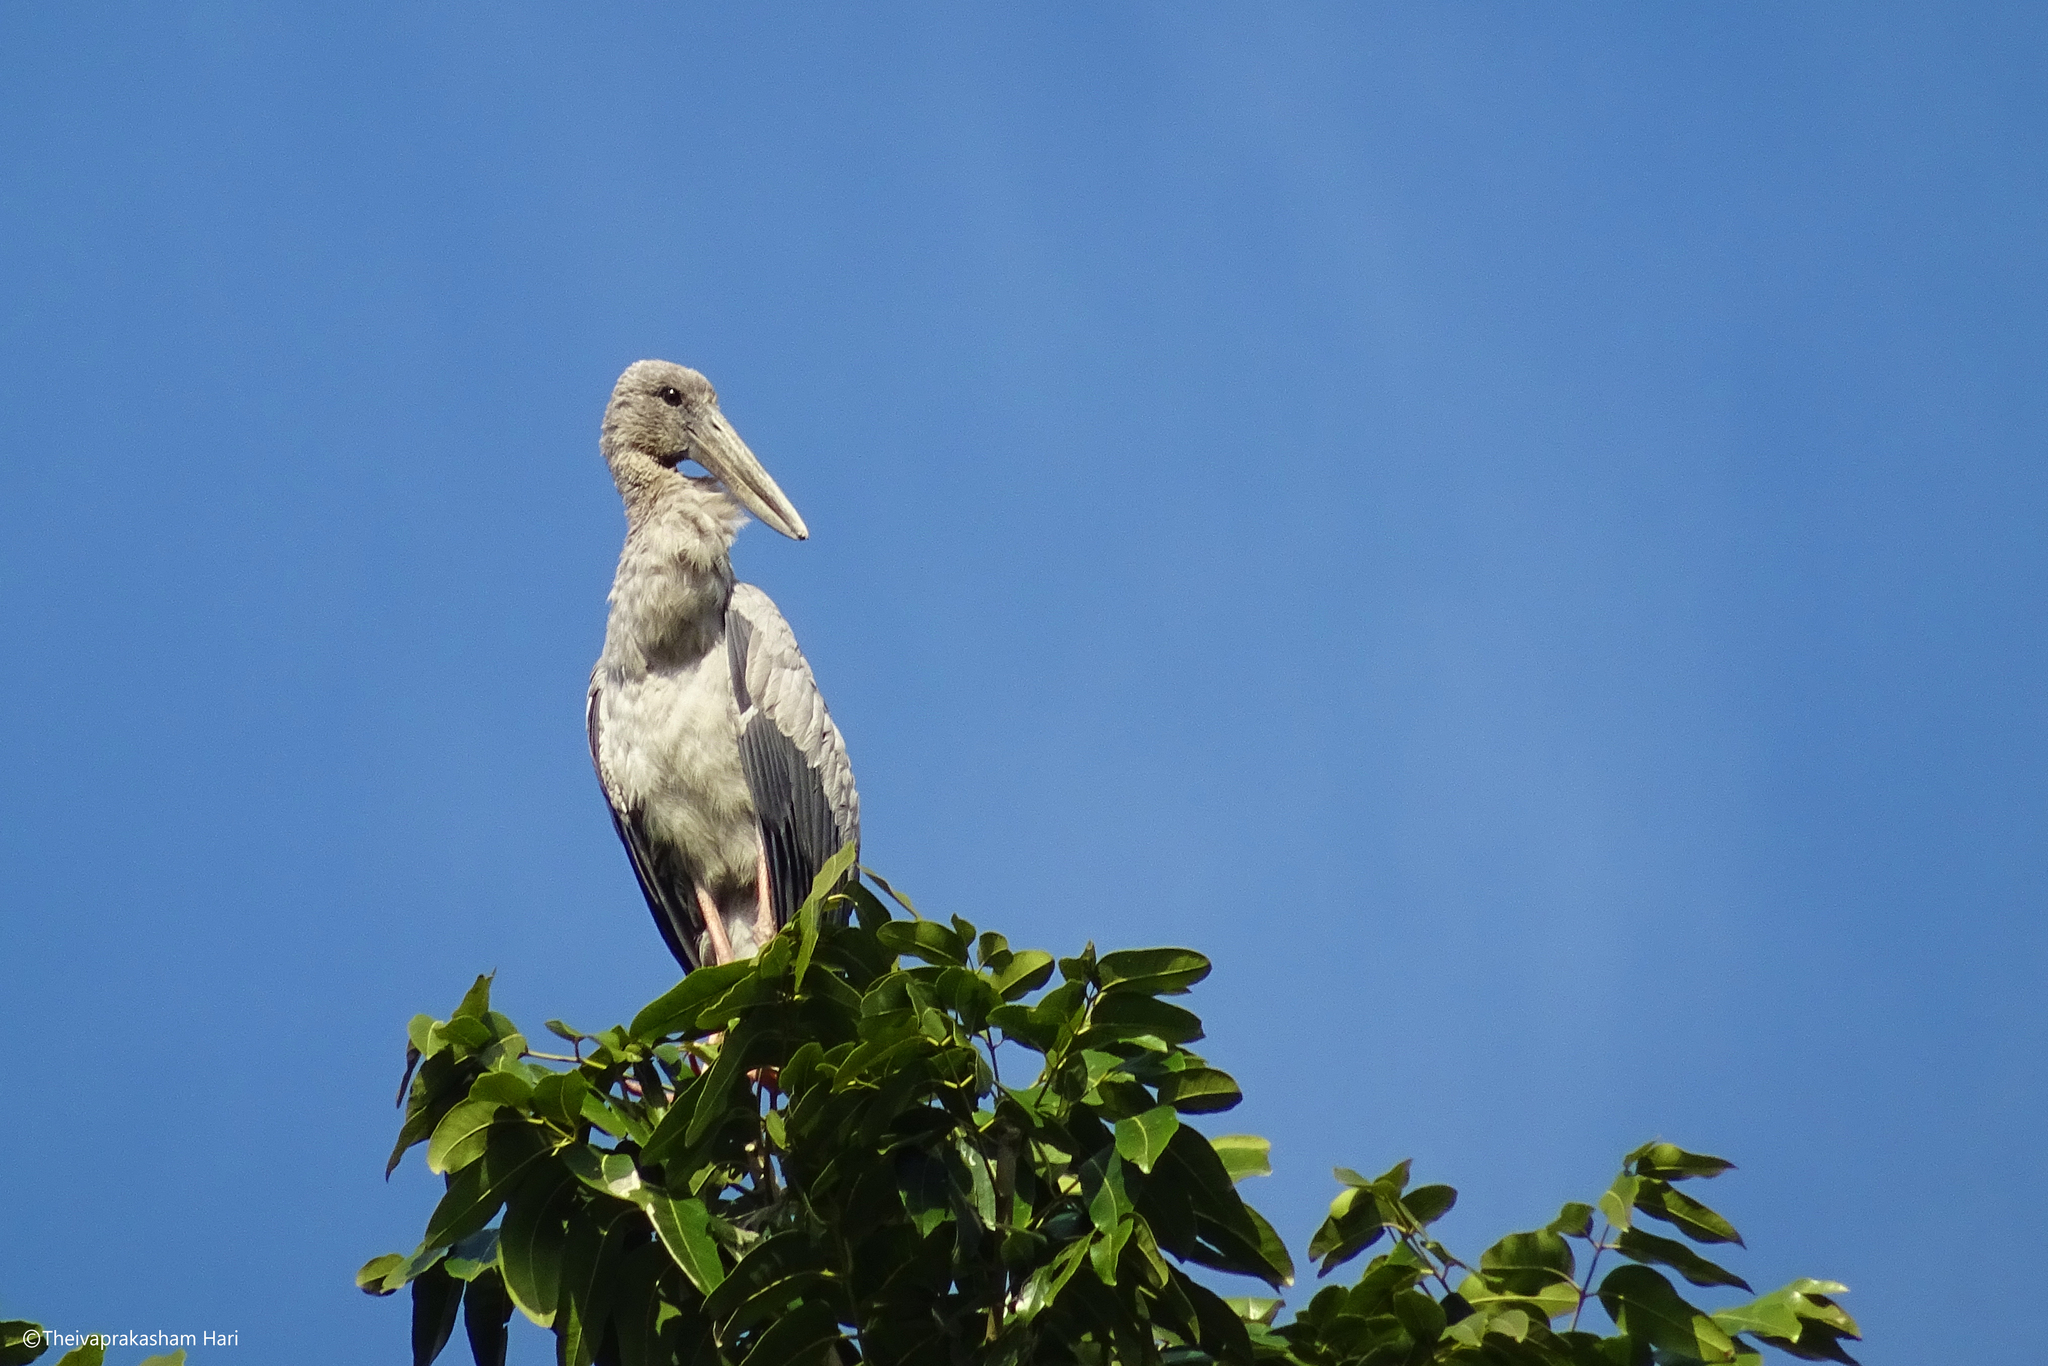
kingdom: Animalia
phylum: Chordata
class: Aves
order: Ciconiiformes
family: Ciconiidae
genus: Anastomus
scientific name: Anastomus oscitans
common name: Asian openbill
